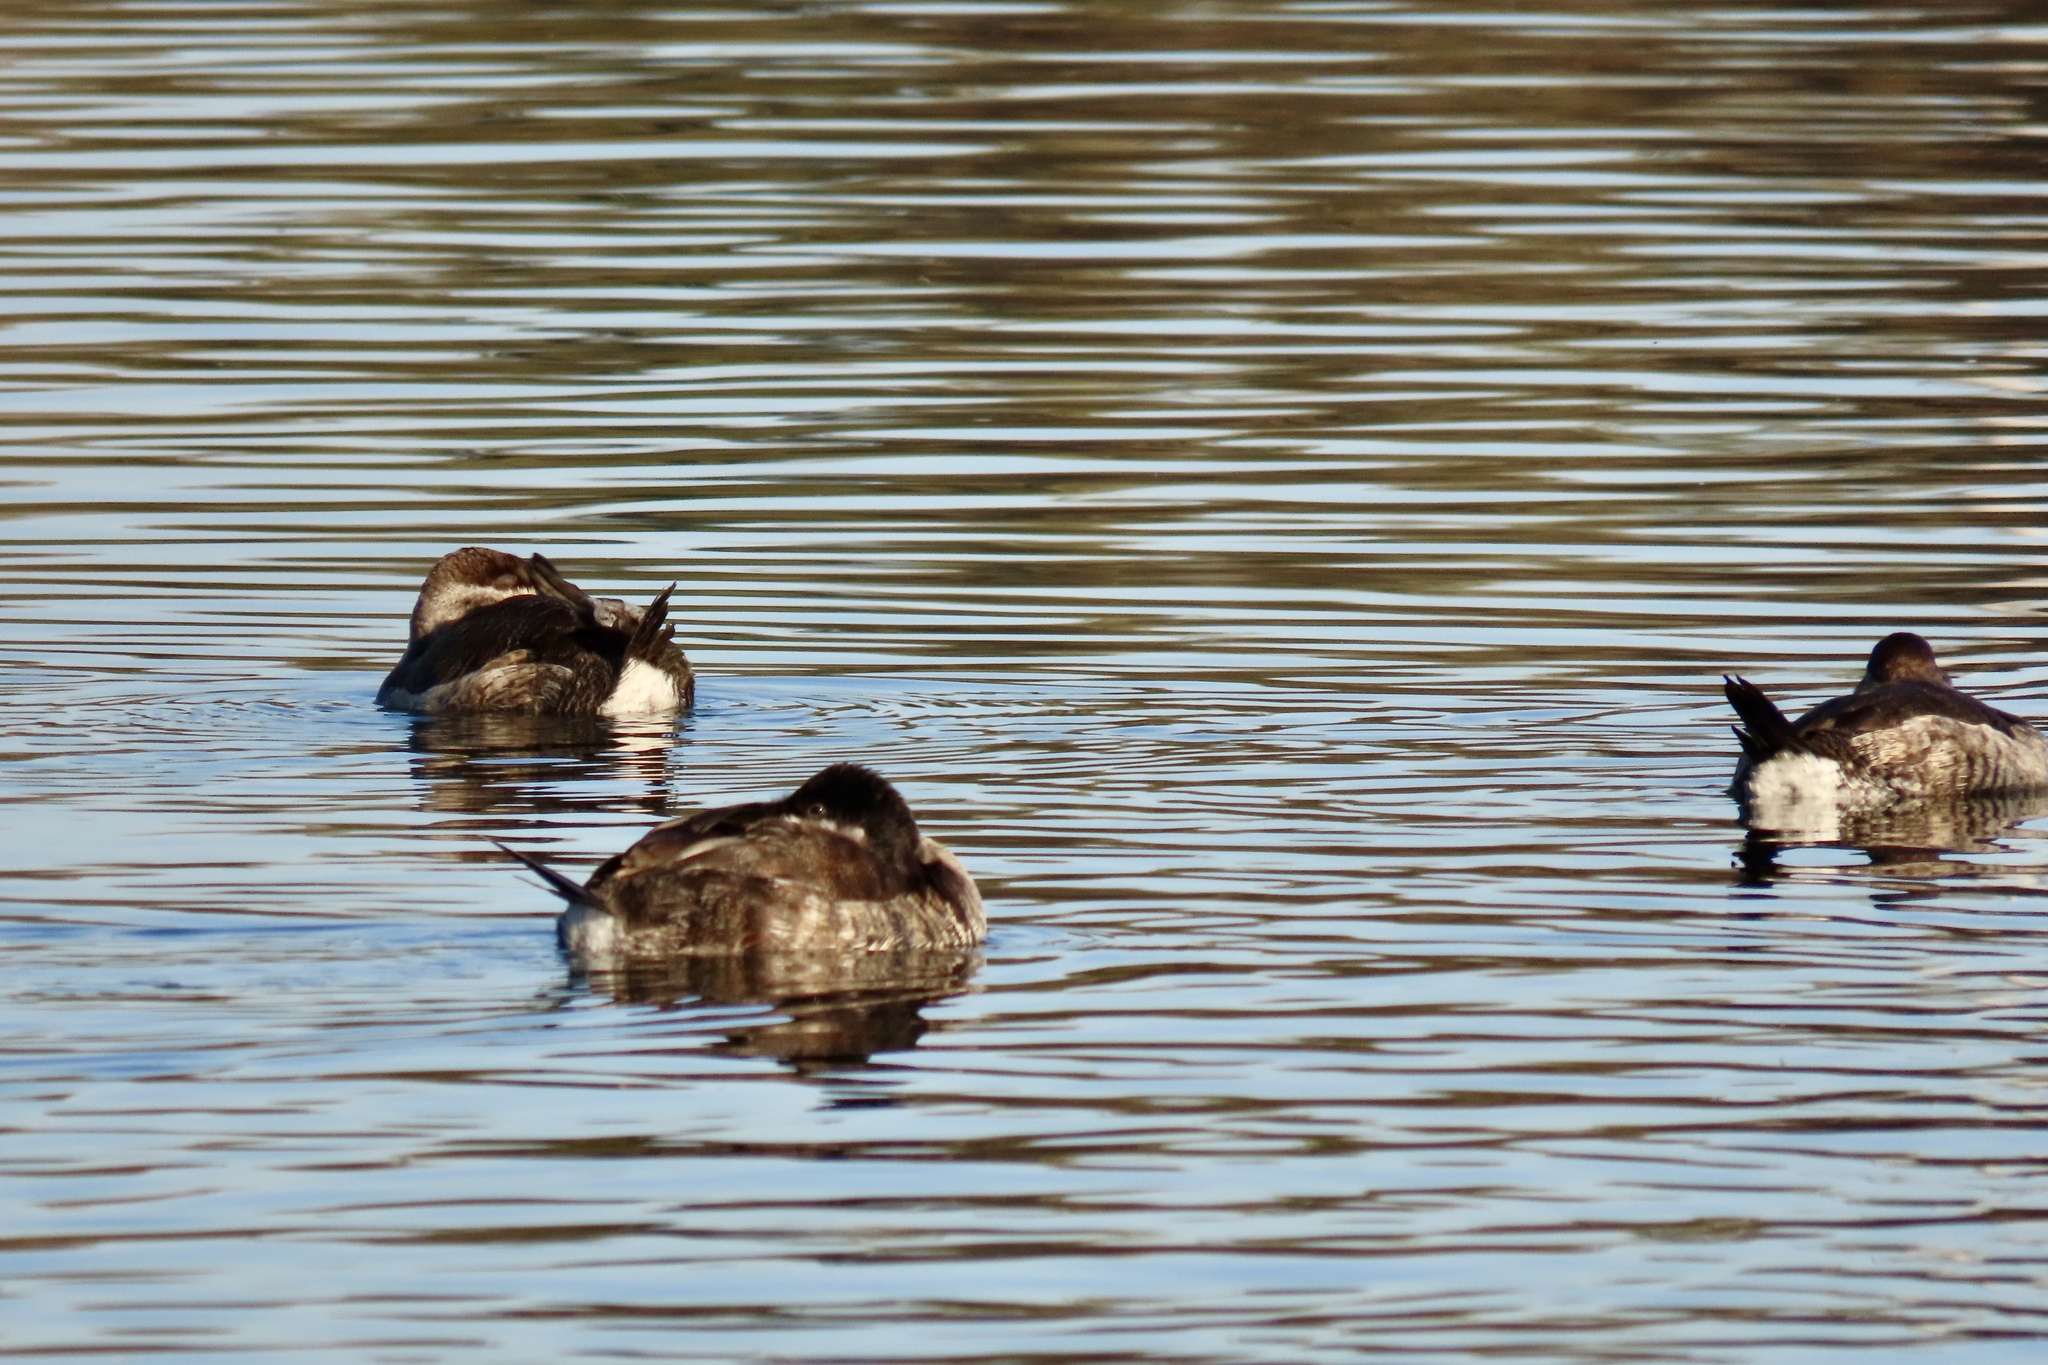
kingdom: Animalia
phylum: Chordata
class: Aves
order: Anseriformes
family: Anatidae
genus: Oxyura
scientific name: Oxyura jamaicensis
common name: Ruddy duck
